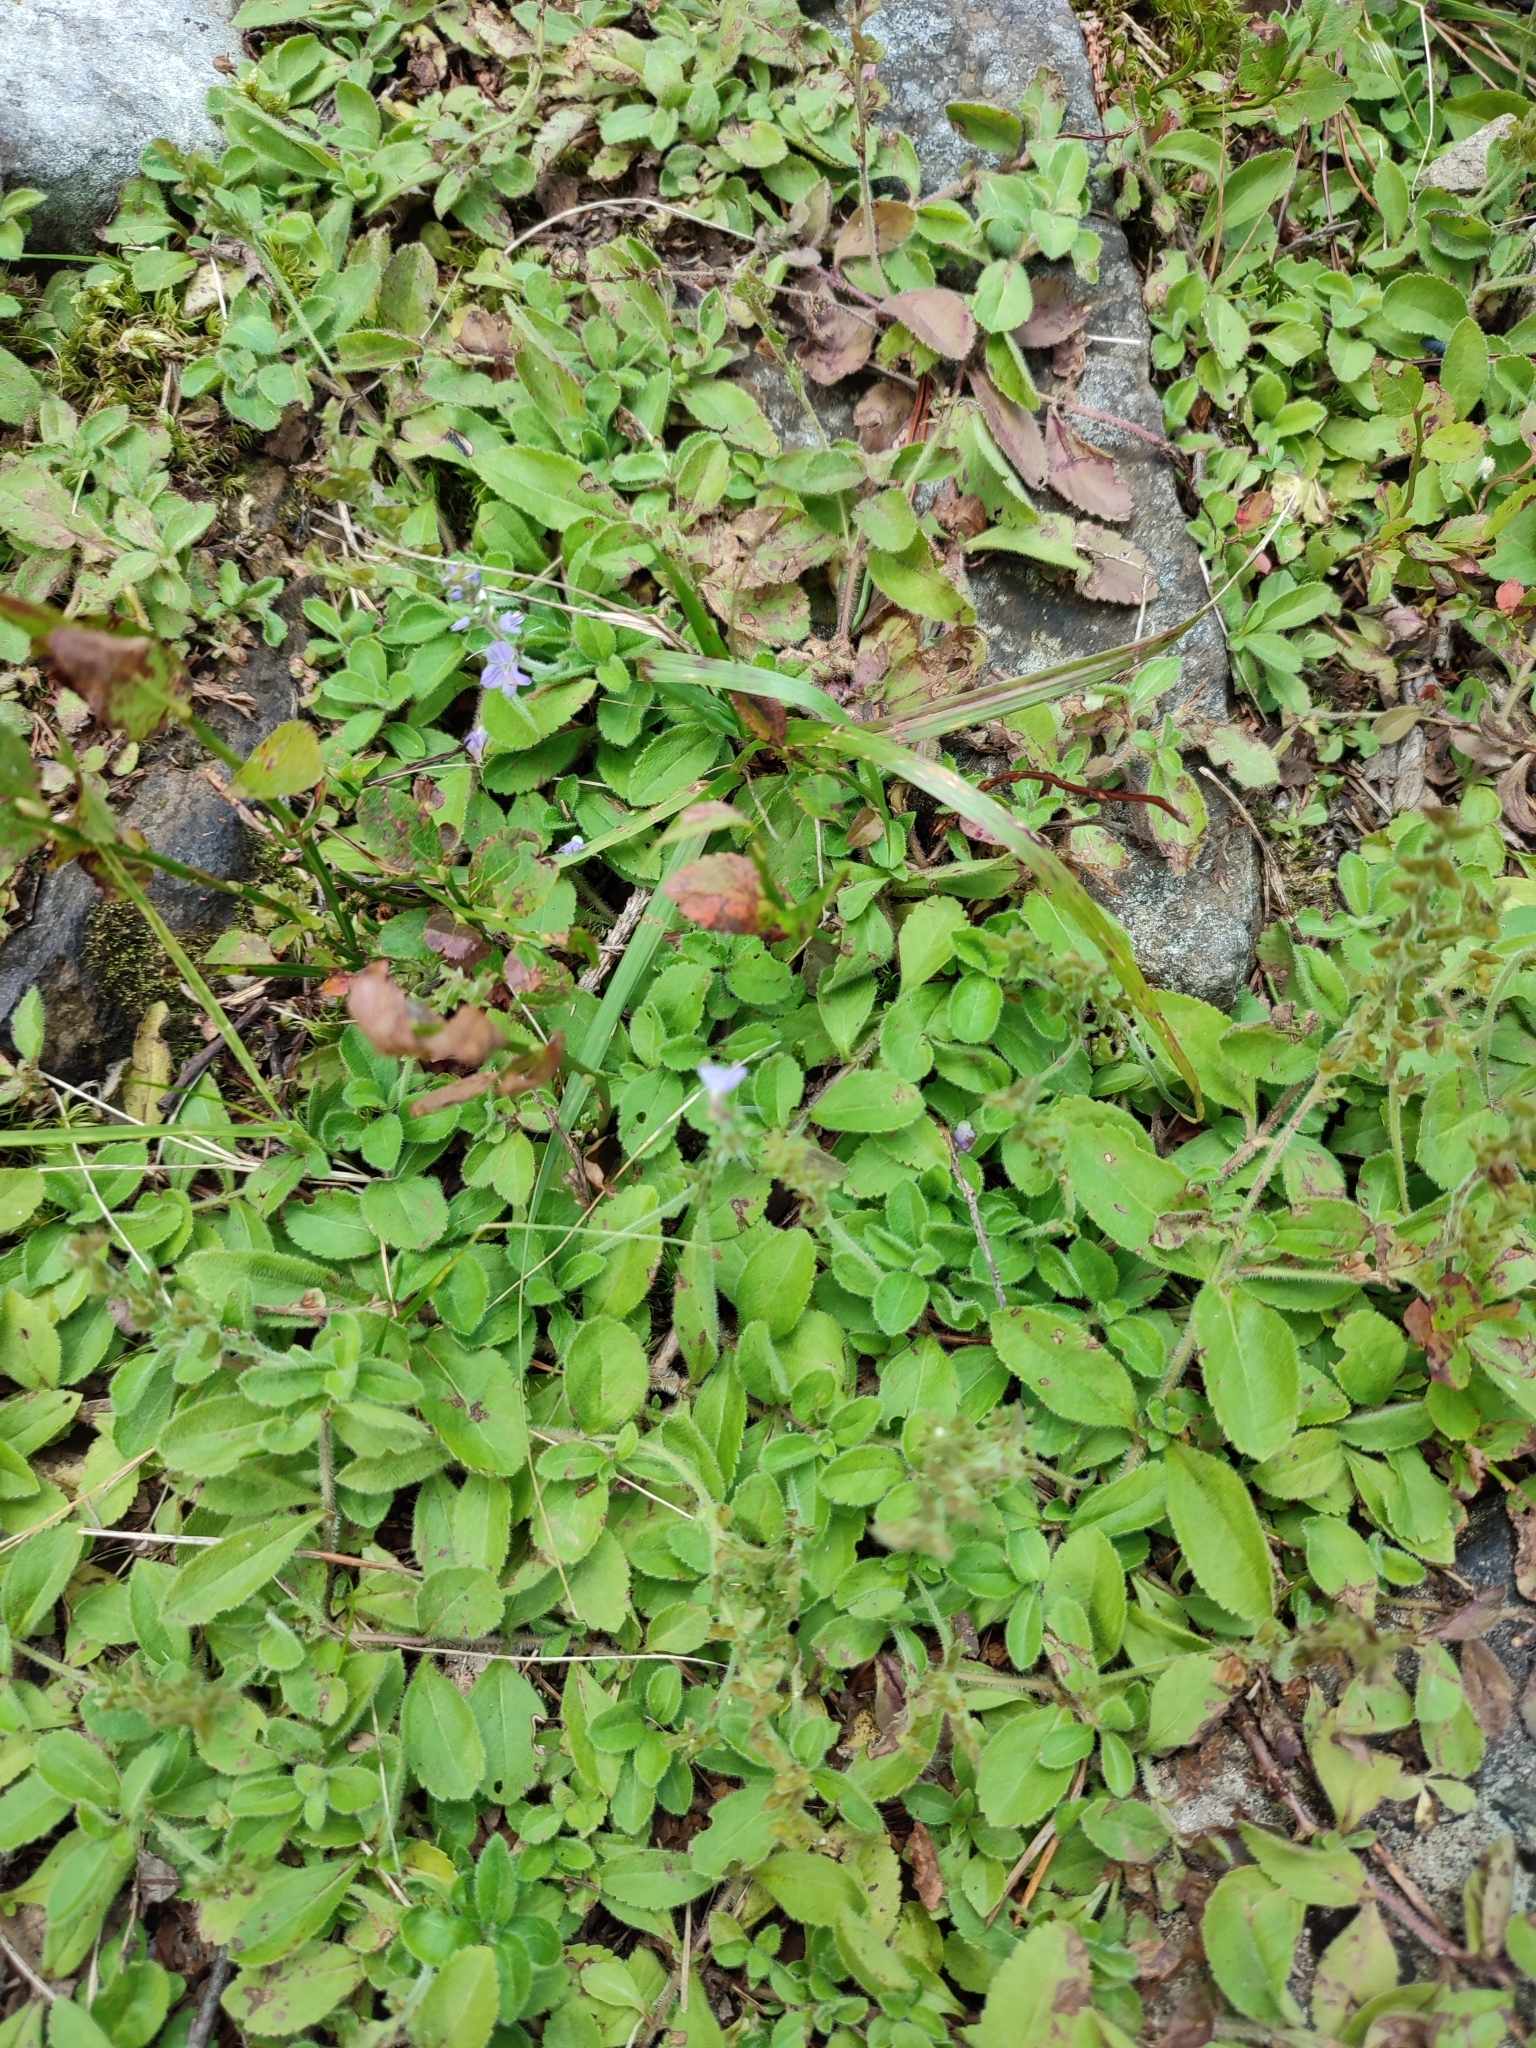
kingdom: Plantae
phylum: Tracheophyta
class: Magnoliopsida
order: Lamiales
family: Plantaginaceae
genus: Veronica
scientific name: Veronica officinalis
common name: Common speedwell
